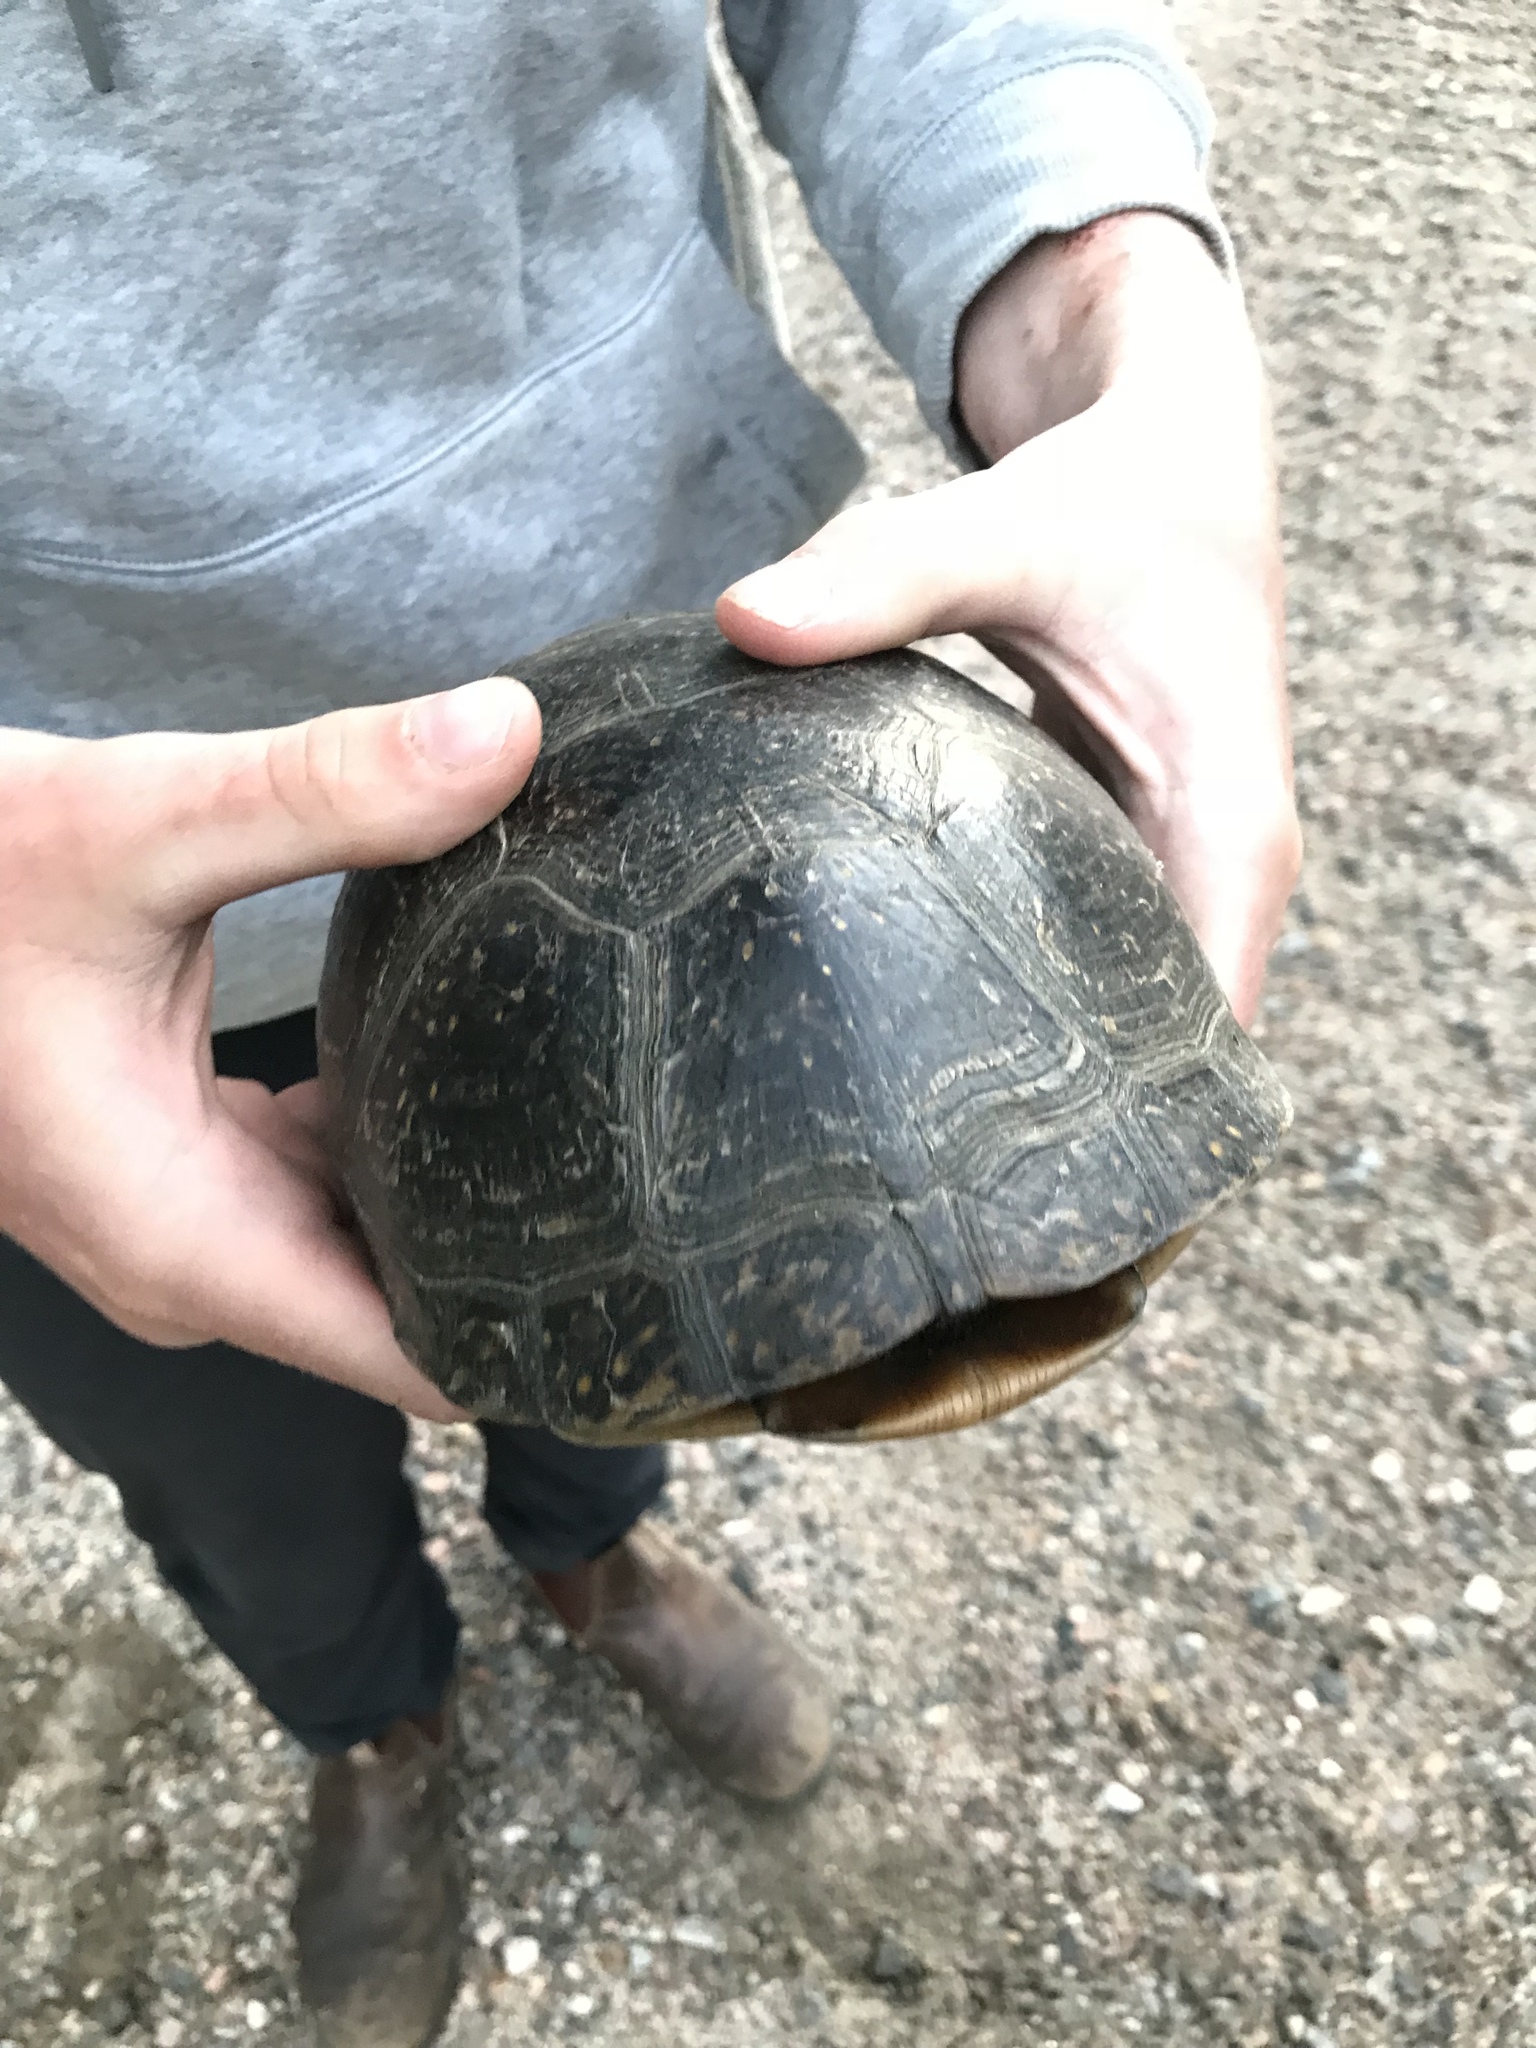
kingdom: Animalia
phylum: Chordata
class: Testudines
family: Emydidae
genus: Emys
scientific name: Emys blandingii
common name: Blanding's turtle
